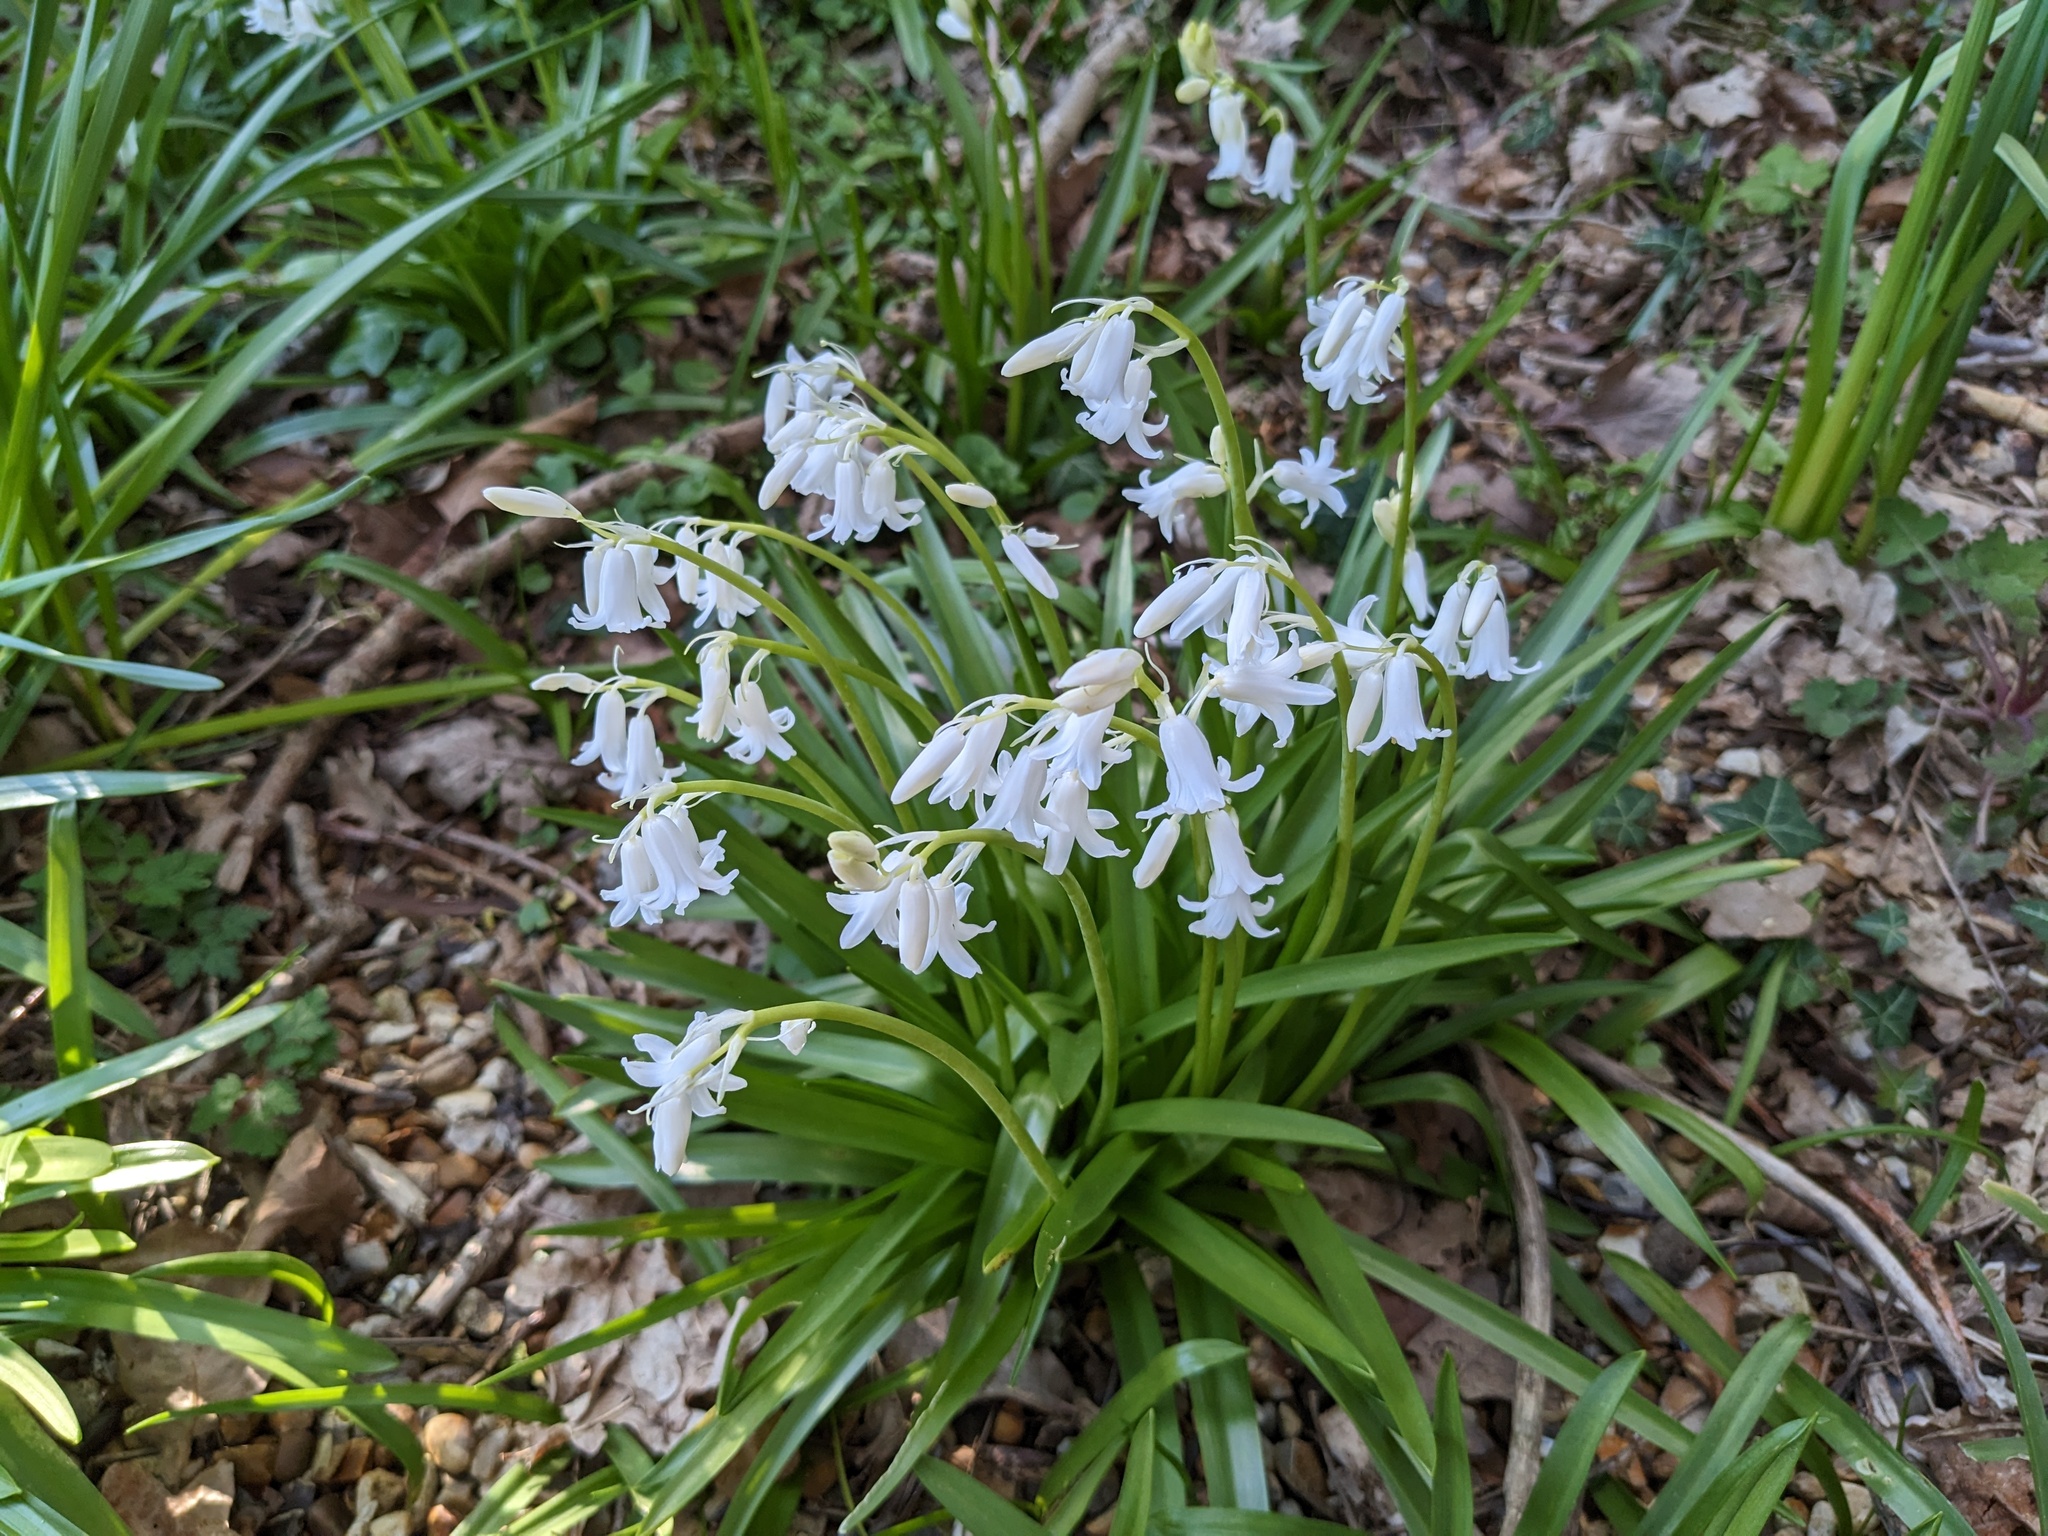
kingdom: Plantae
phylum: Tracheophyta
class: Liliopsida
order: Asparagales
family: Asparagaceae
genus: Hyacinthoides
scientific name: Hyacinthoides non-scripta
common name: Bluebell
